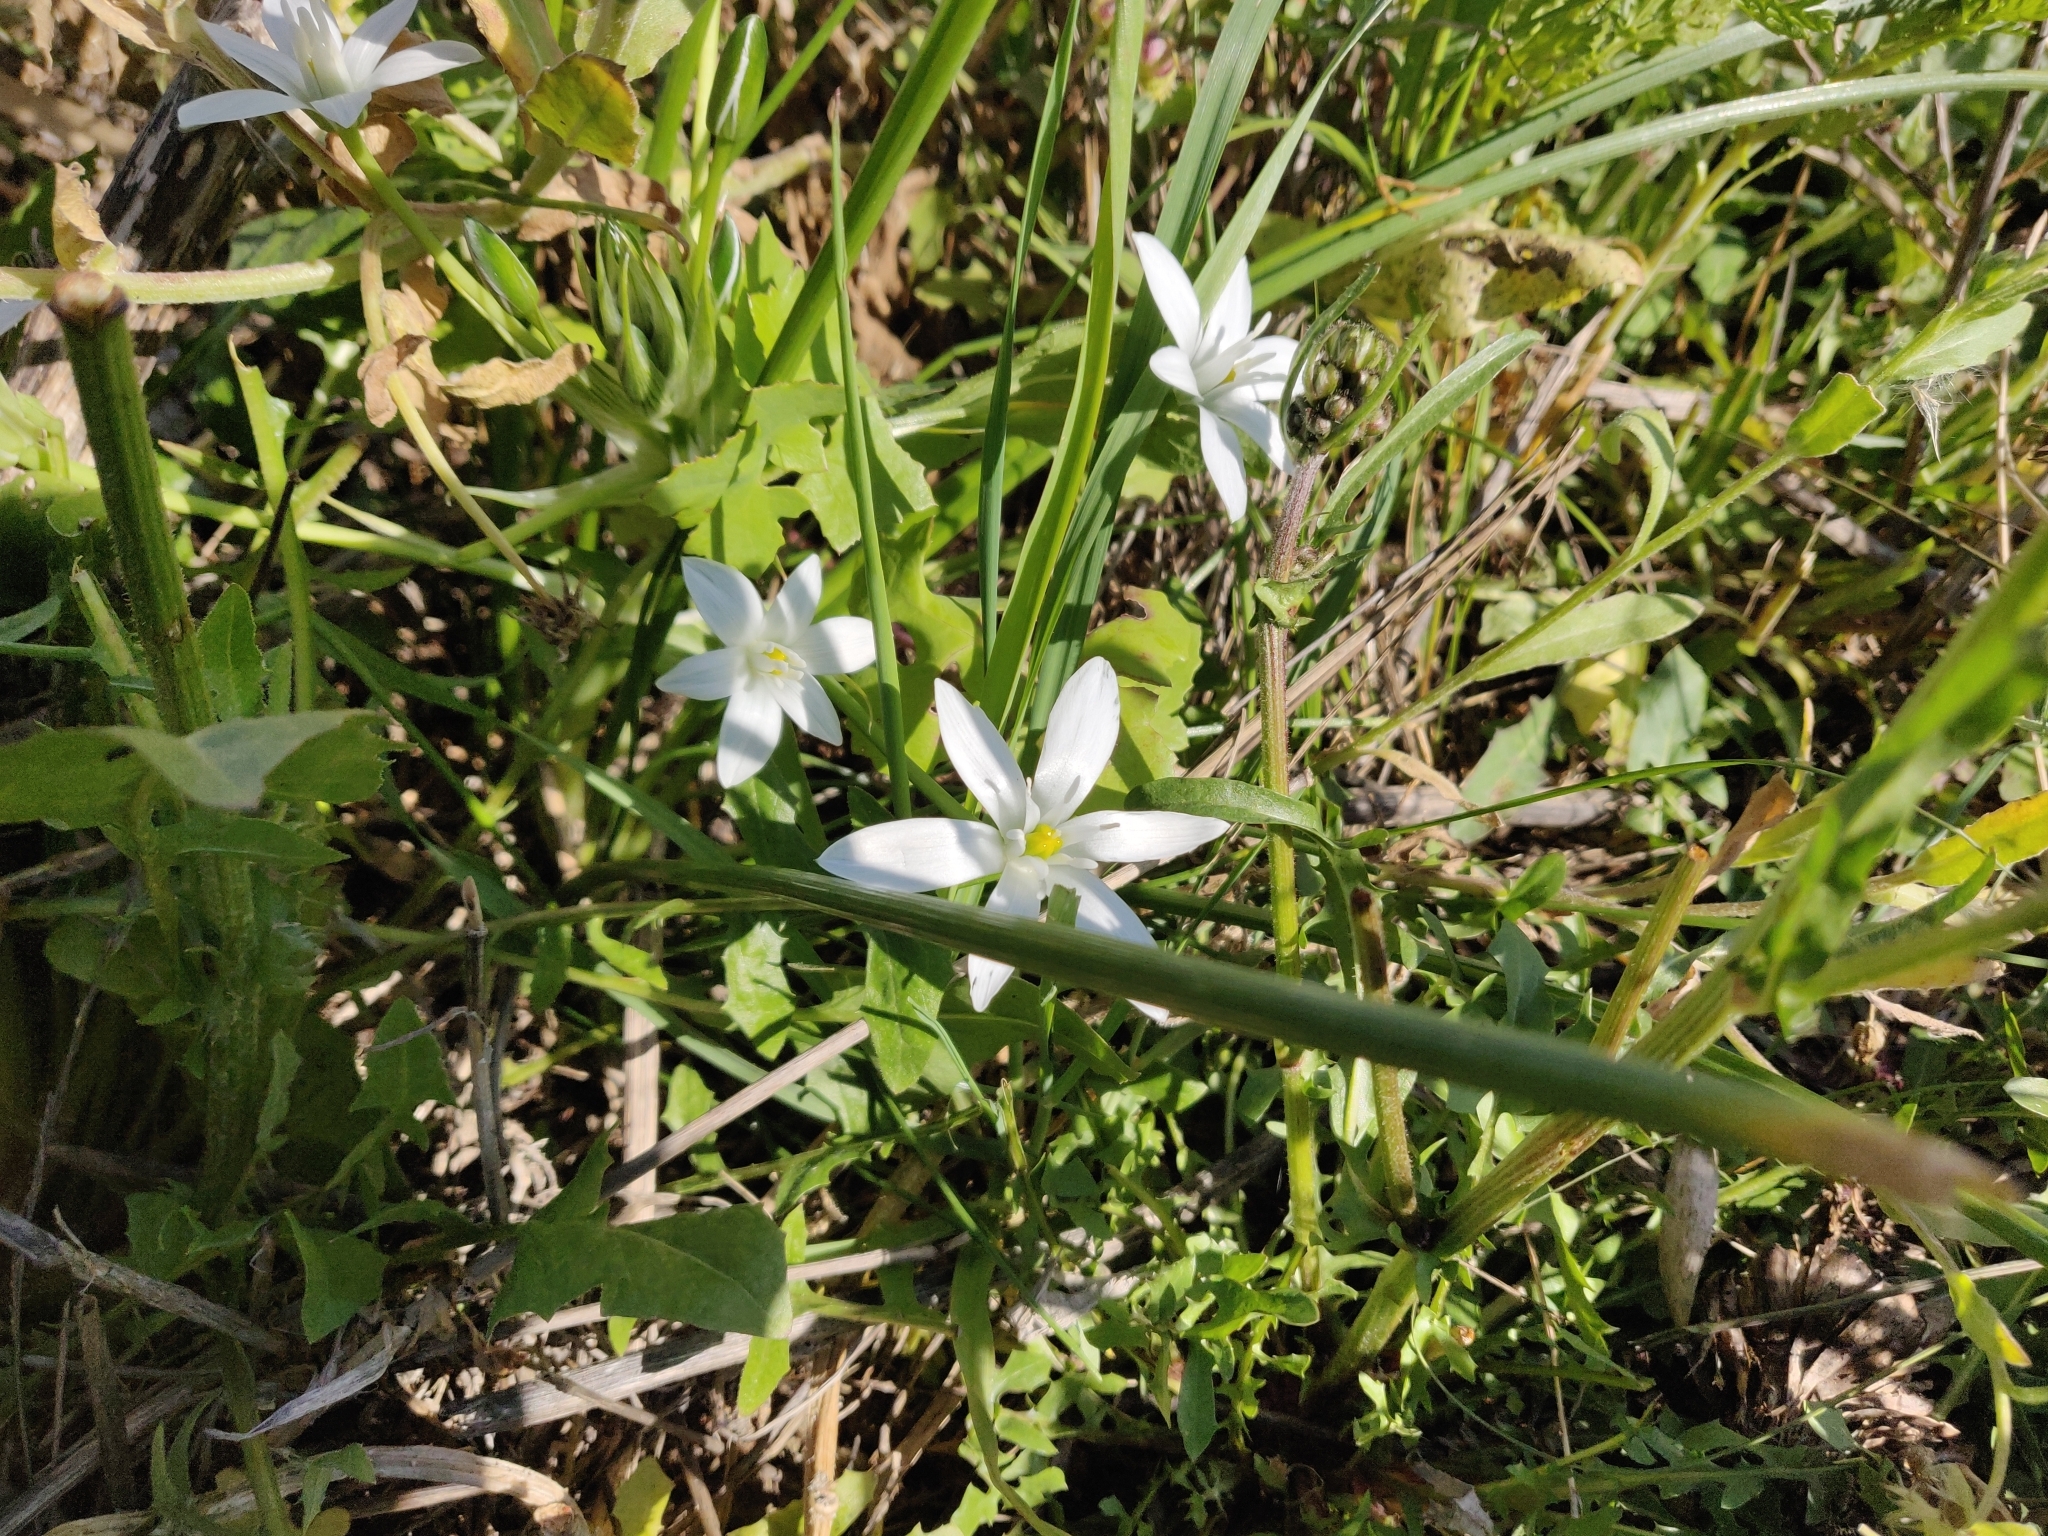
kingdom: Plantae
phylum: Tracheophyta
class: Liliopsida
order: Asparagales
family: Asparagaceae
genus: Ornithogalum
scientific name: Ornithogalum divergens
